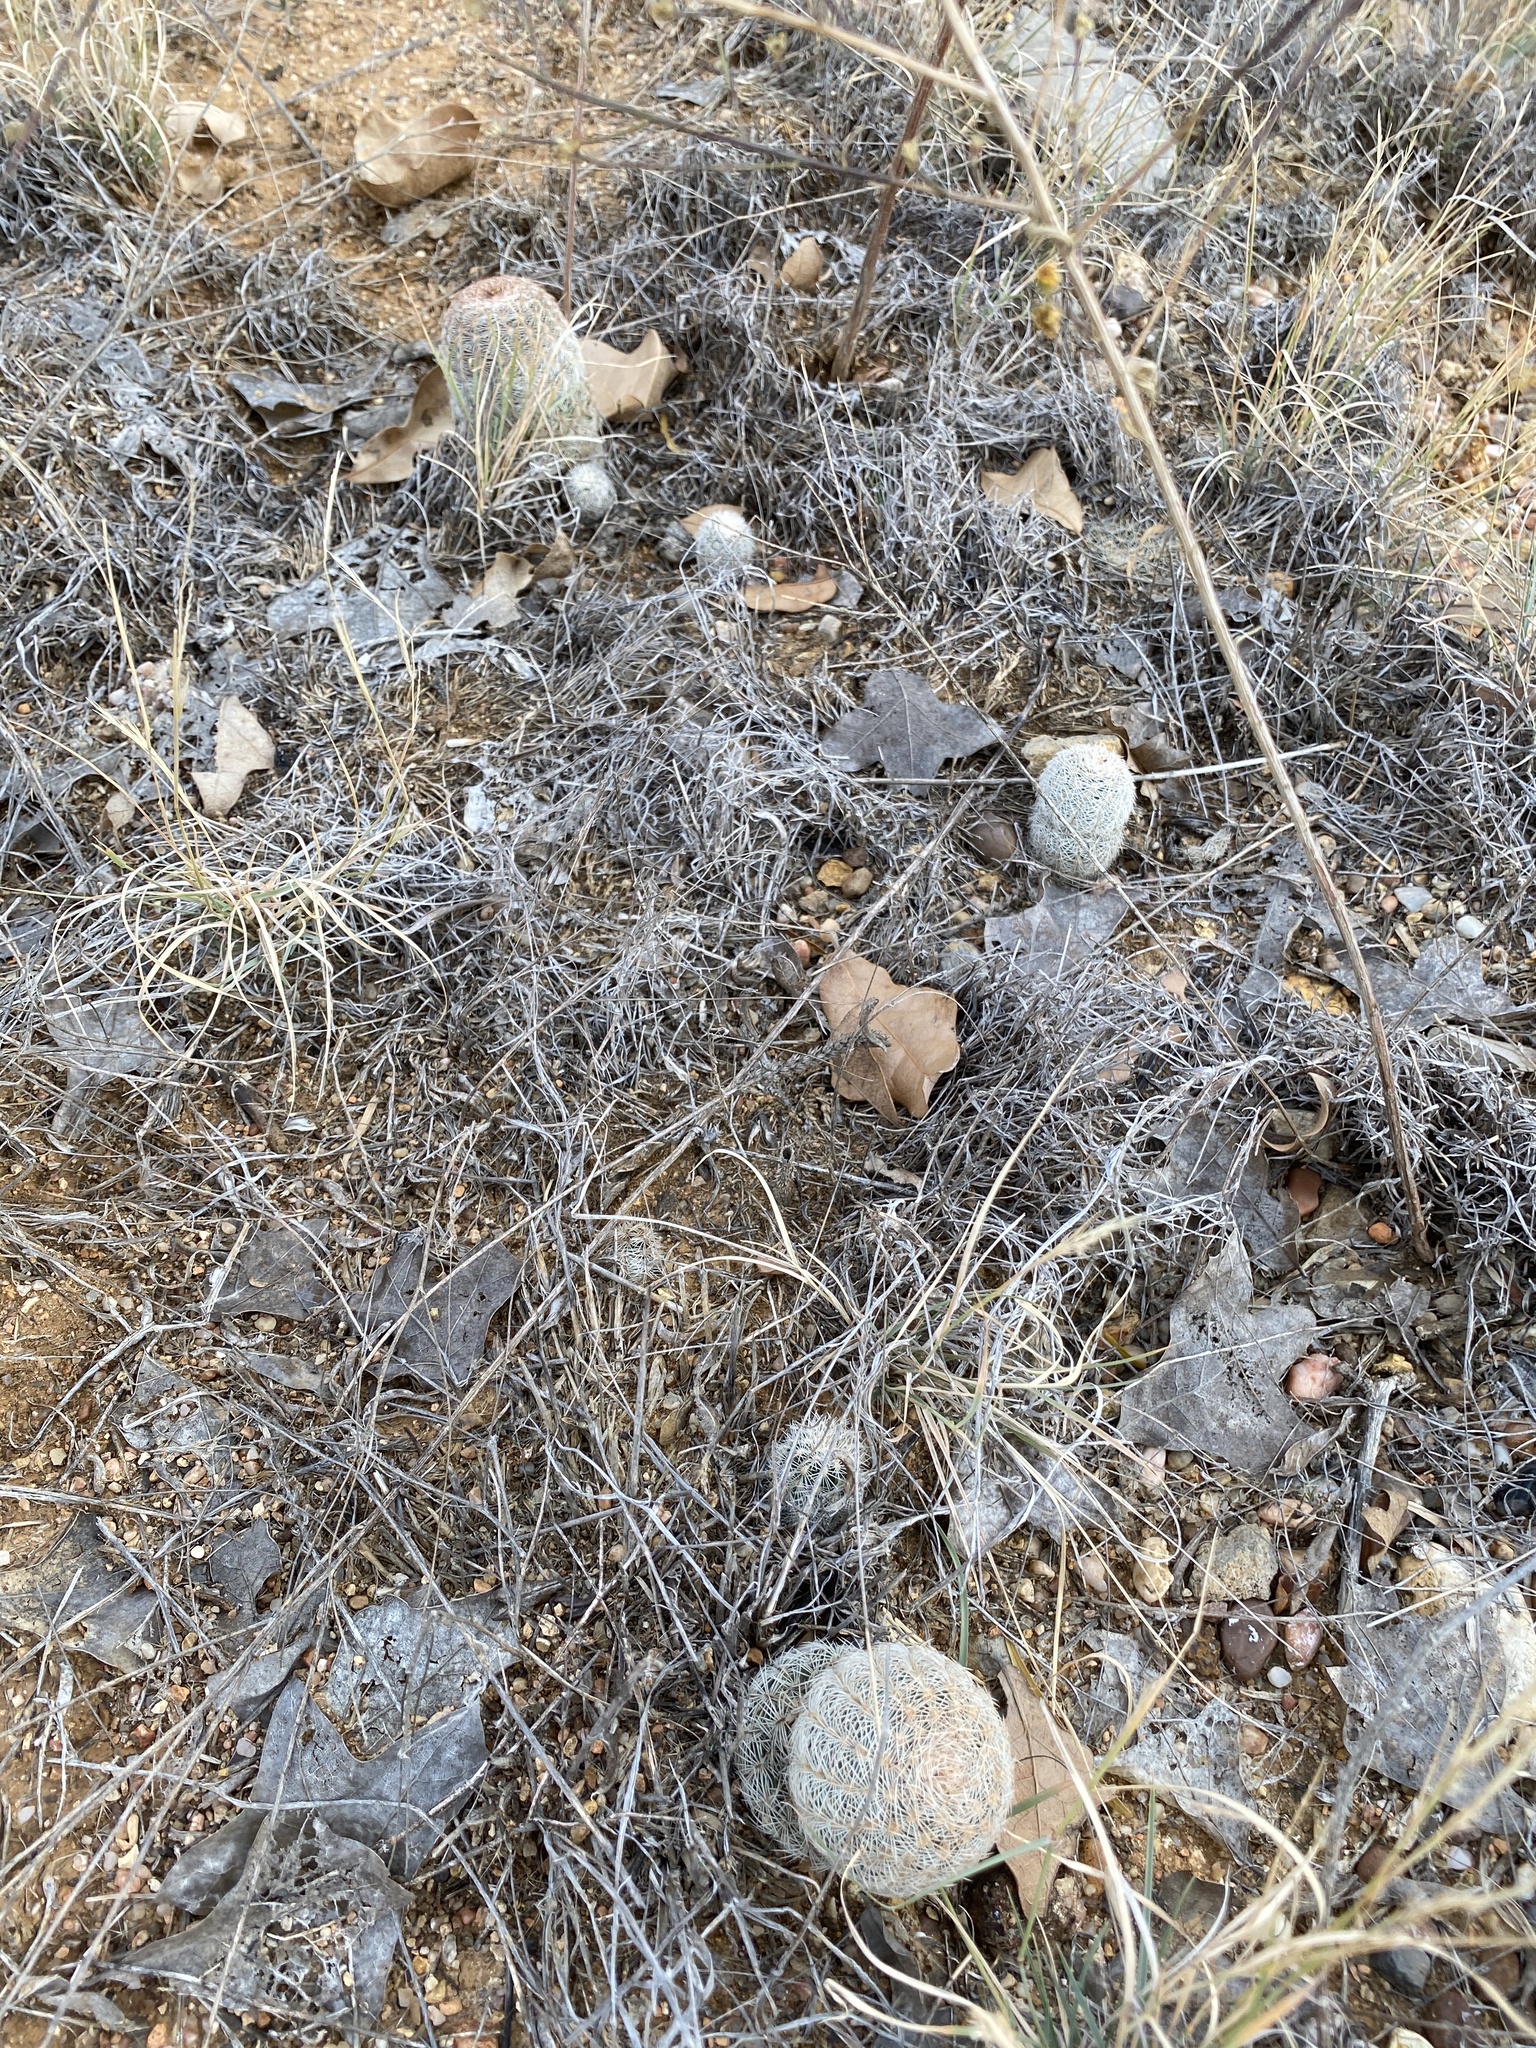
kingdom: Plantae
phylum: Tracheophyta
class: Magnoliopsida
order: Caryophyllales
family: Cactaceae
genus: Echinocereus
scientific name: Echinocereus reichenbachii
